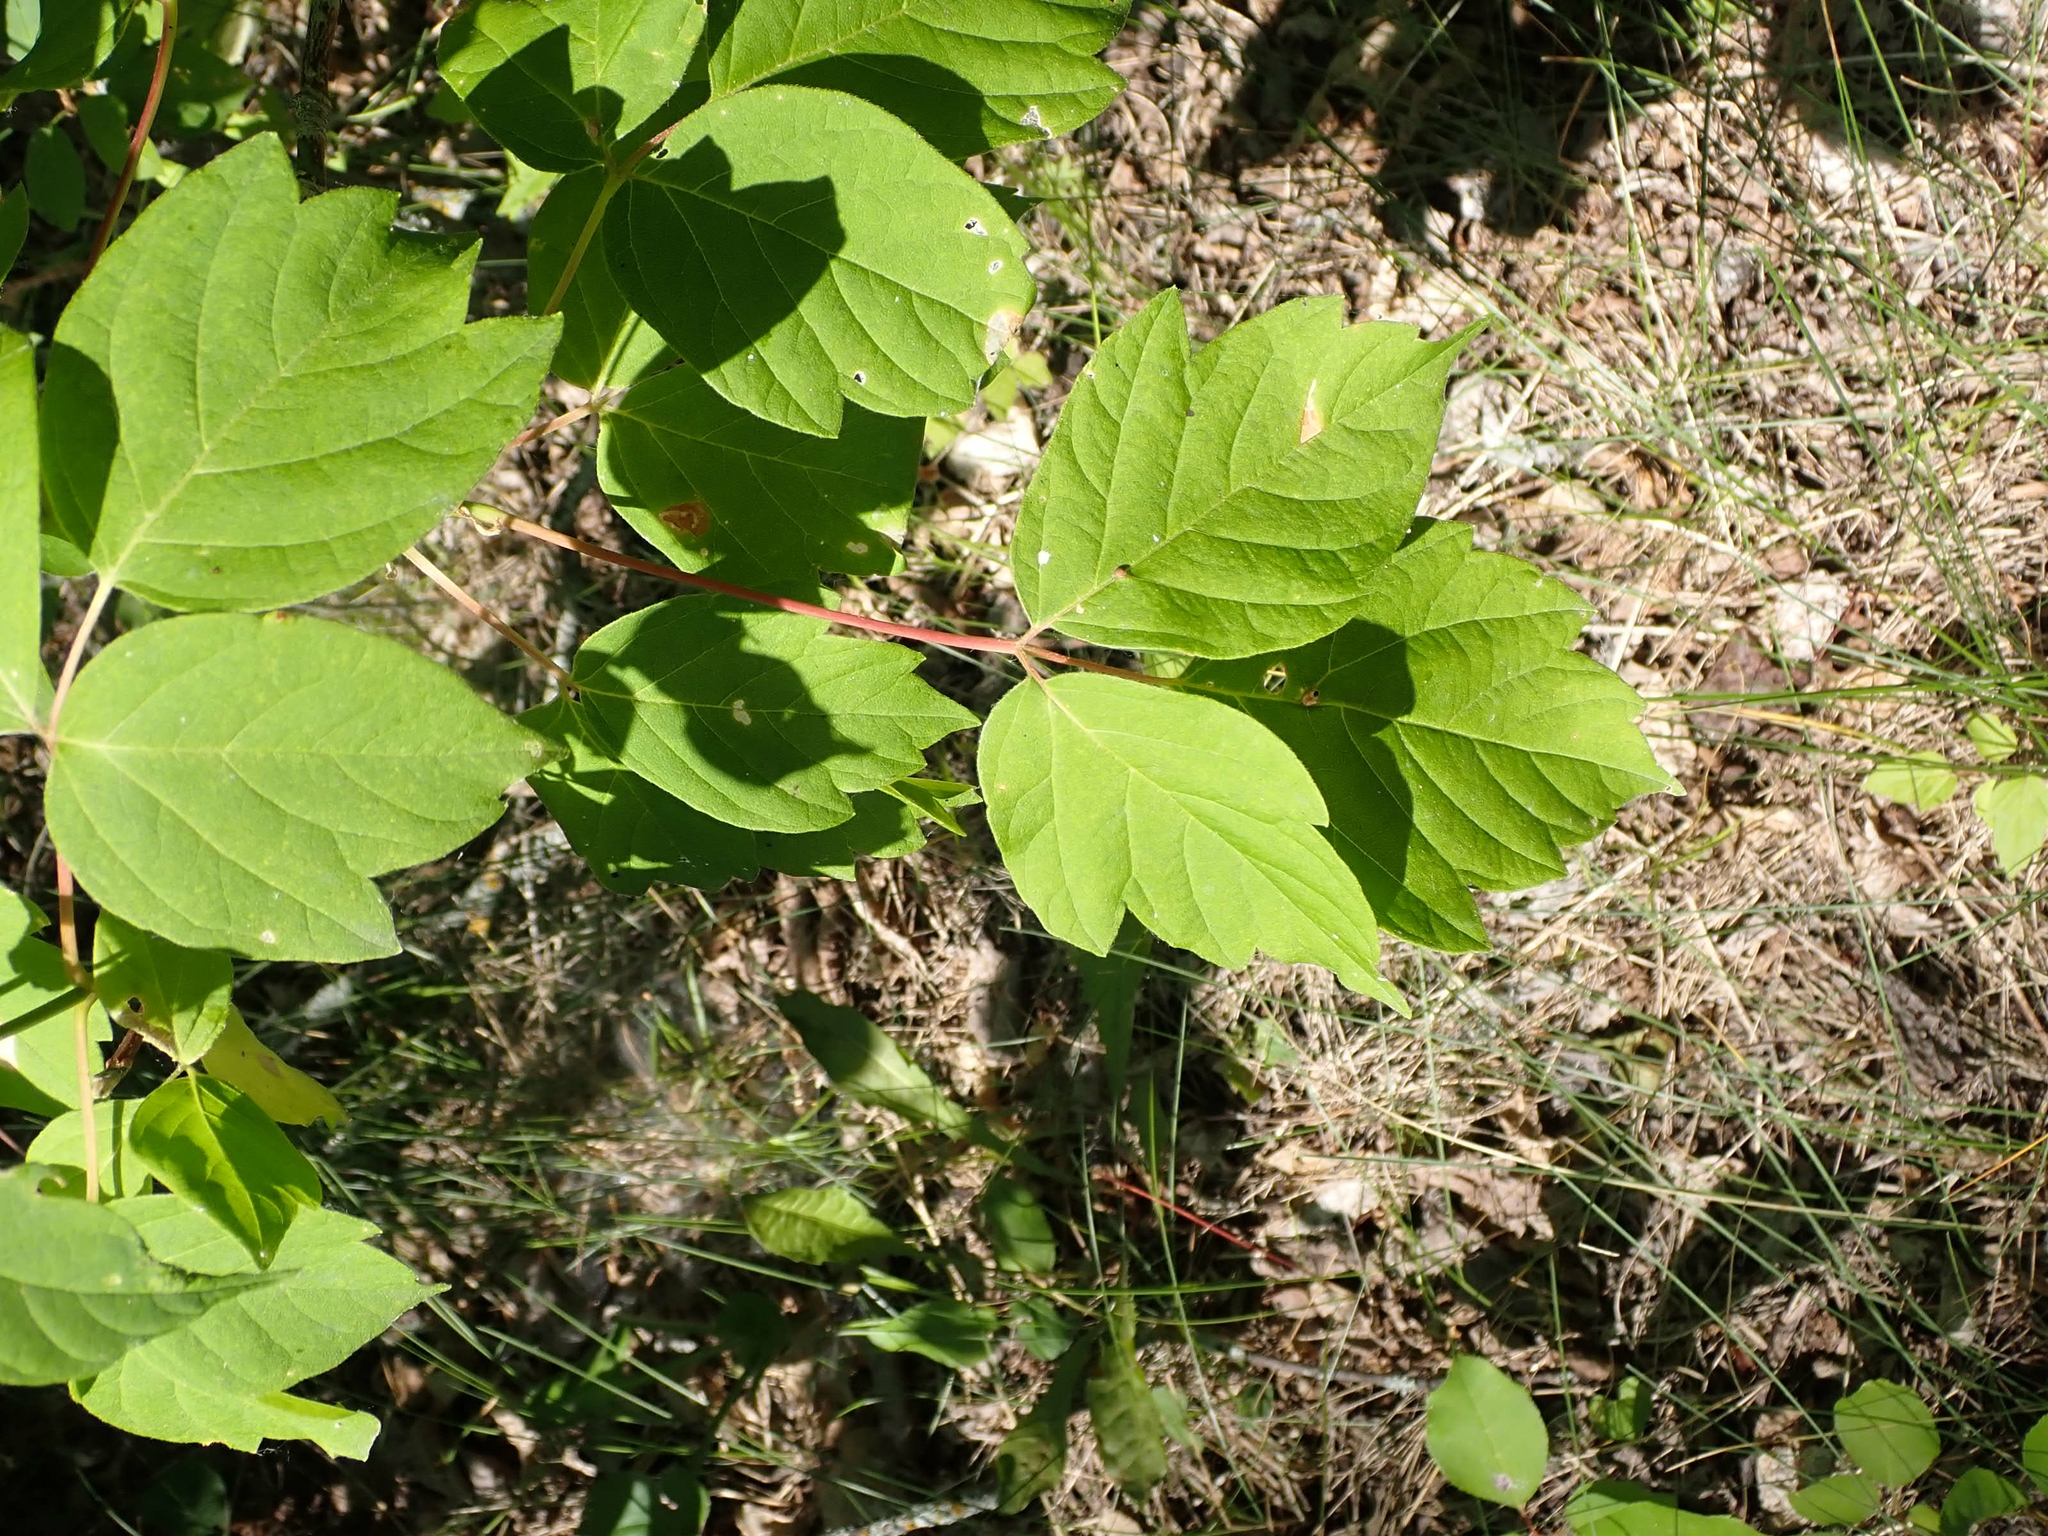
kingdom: Plantae
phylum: Tracheophyta
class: Magnoliopsida
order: Sapindales
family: Sapindaceae
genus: Acer
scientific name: Acer negundo
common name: Ashleaf maple
